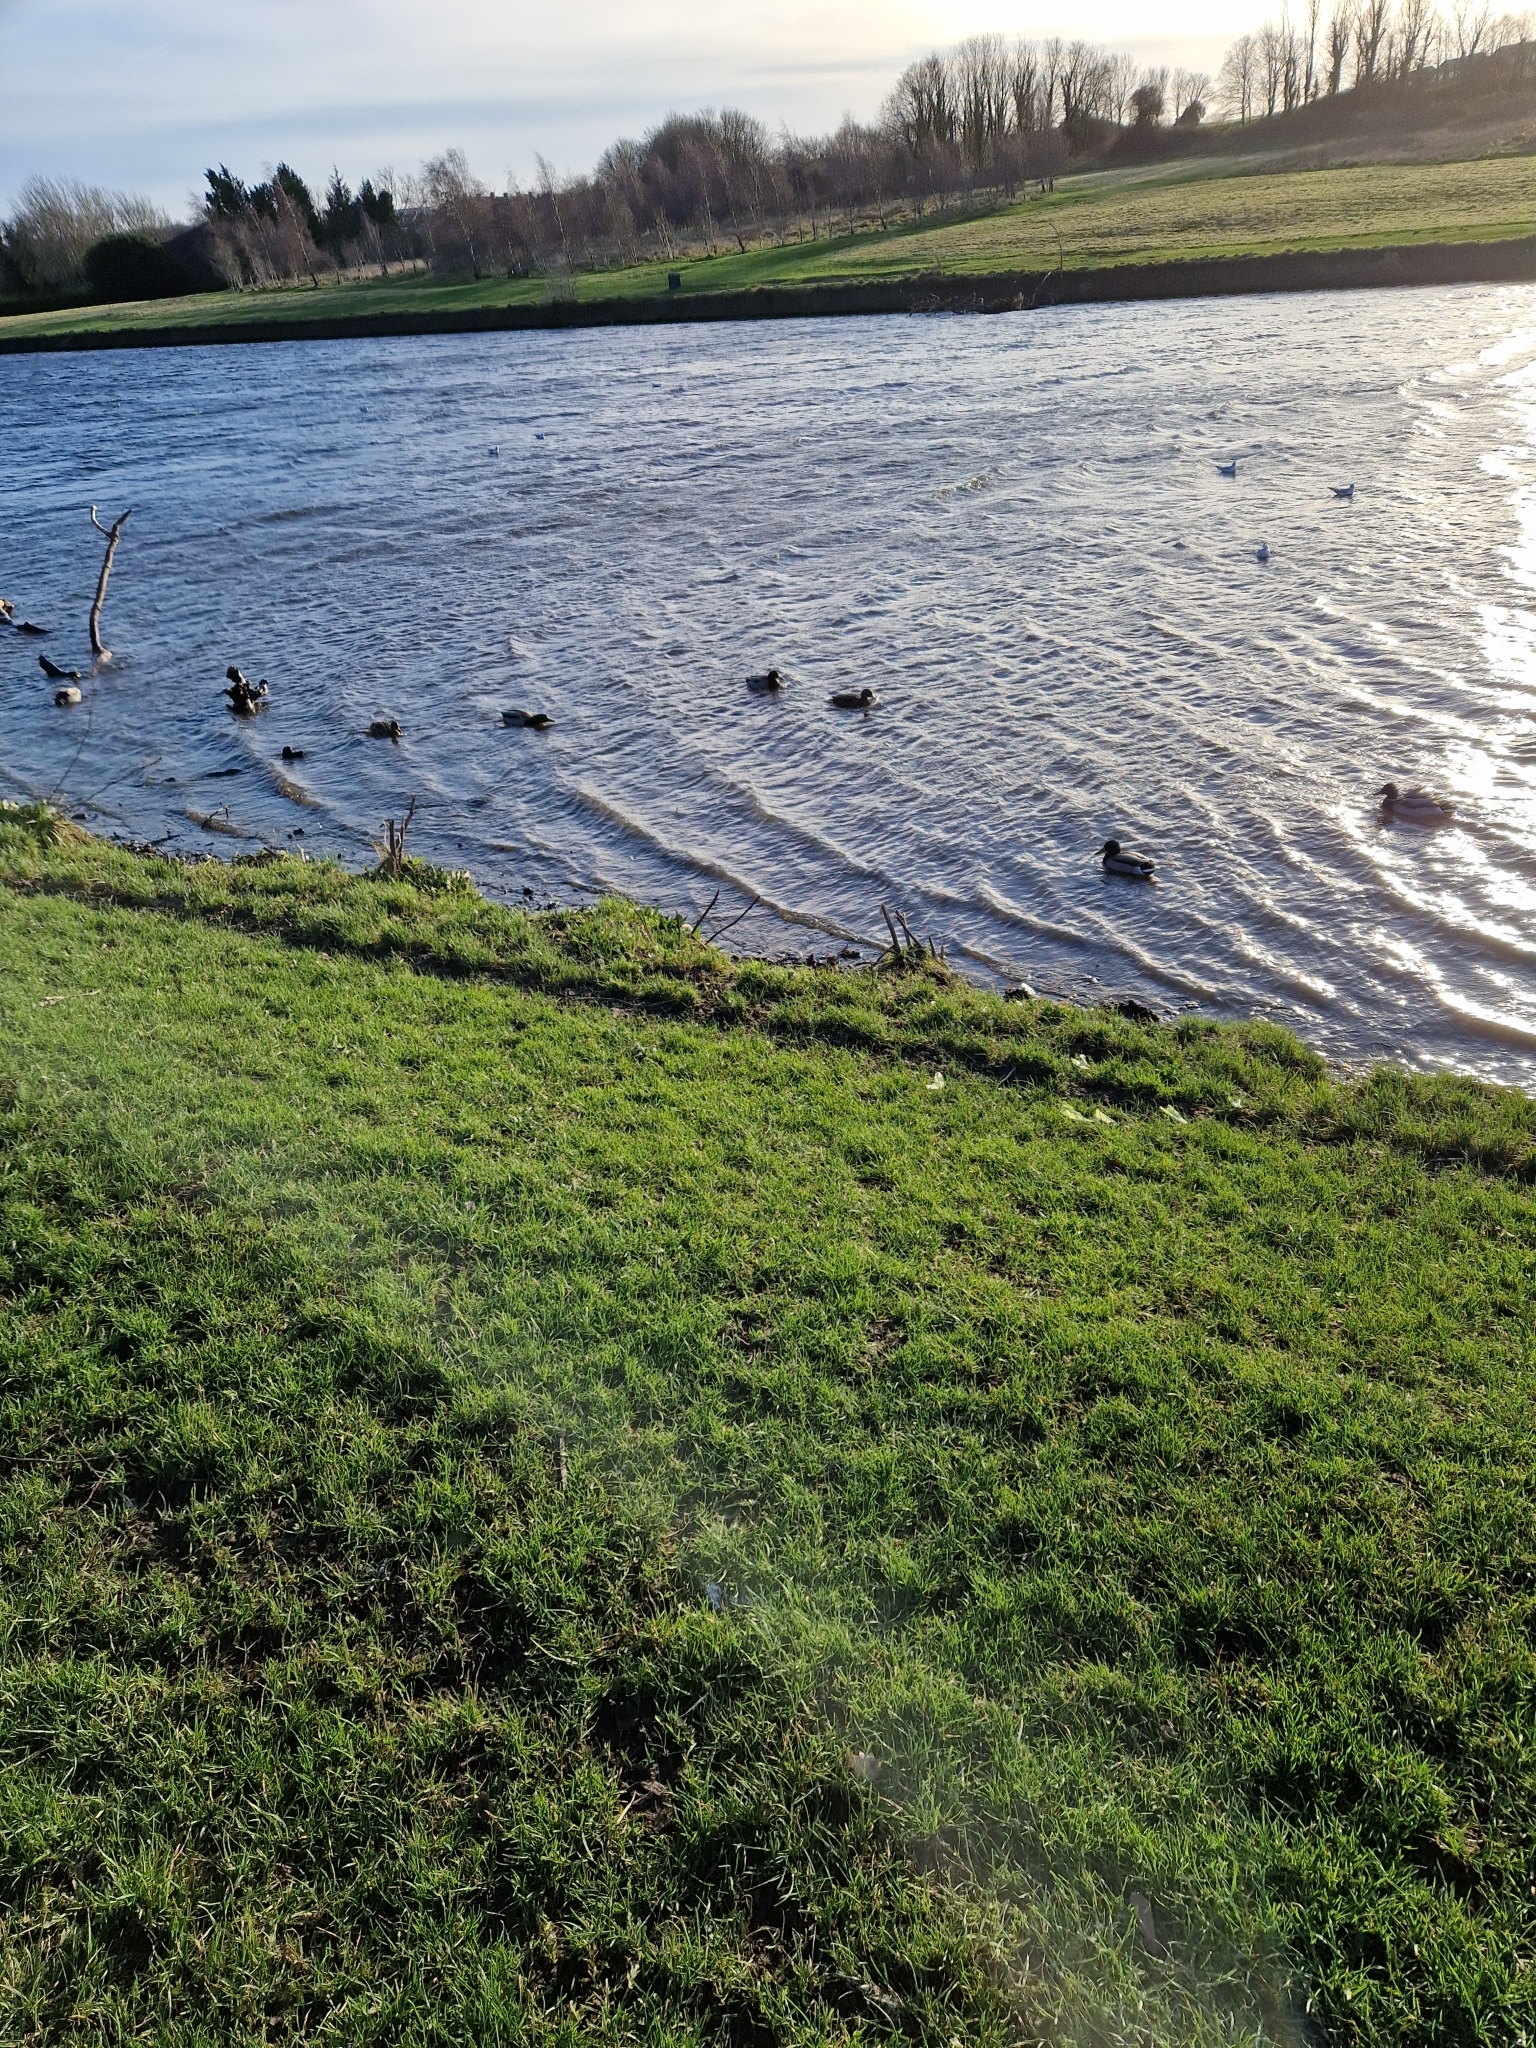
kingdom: Animalia
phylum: Chordata
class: Aves
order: Anseriformes
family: Anatidae
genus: Anas
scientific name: Anas platyrhynchos
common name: Mallard
